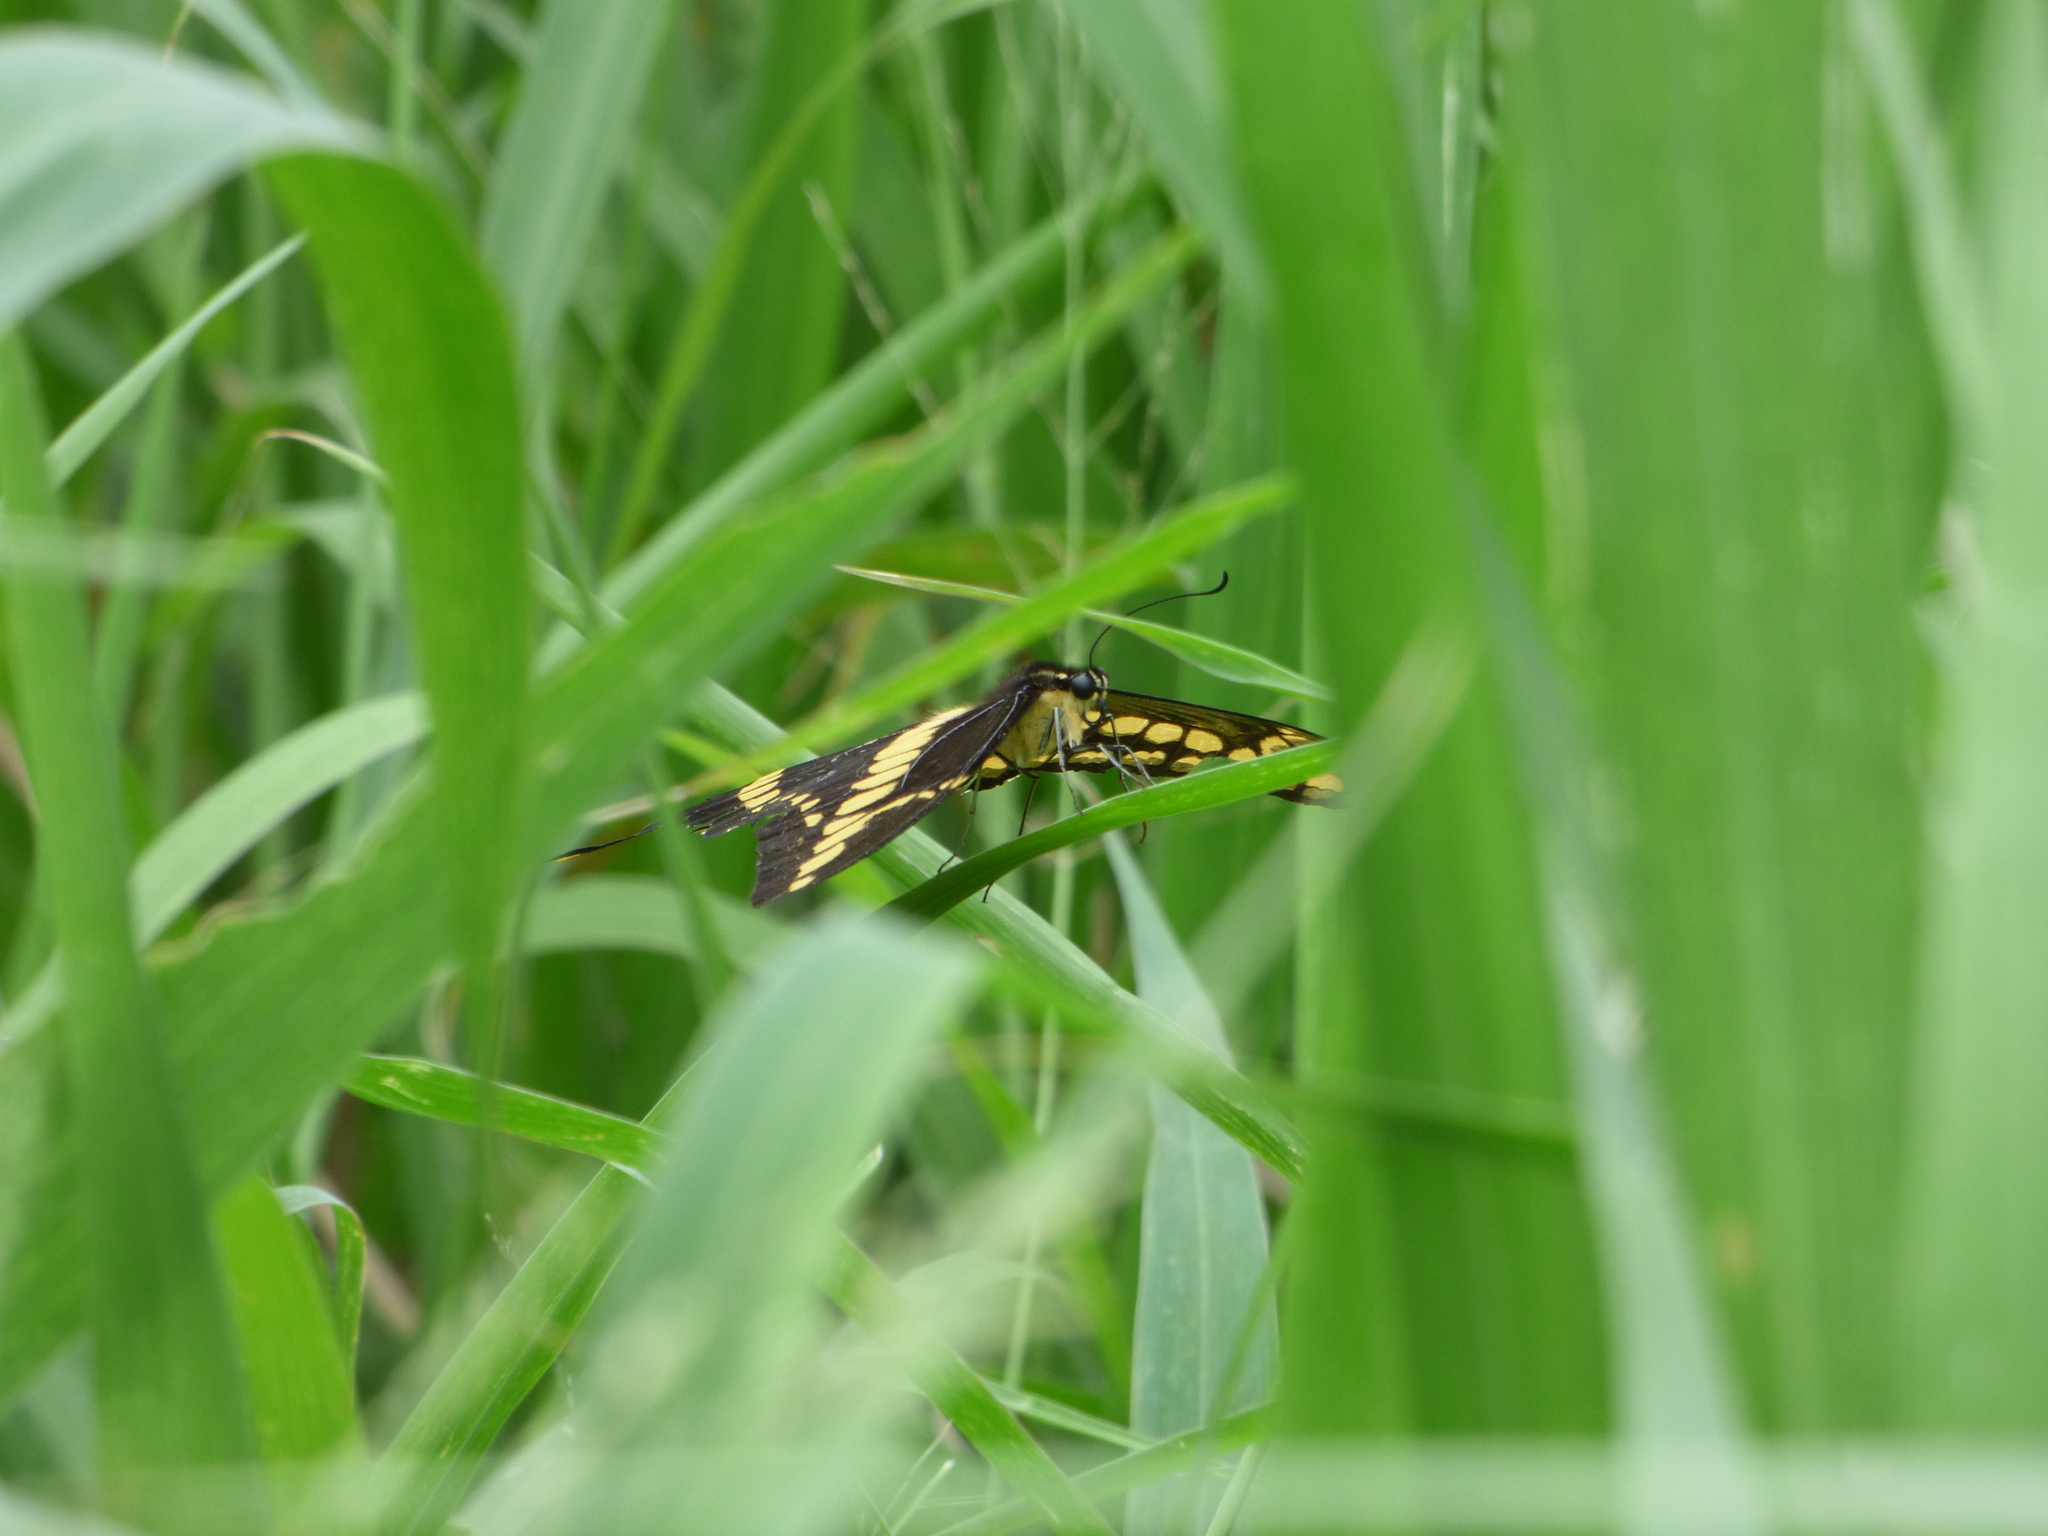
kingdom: Animalia
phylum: Arthropoda
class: Insecta
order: Lepidoptera
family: Papilionidae
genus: Papilio
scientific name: Papilio thoas
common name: King swallowtail
